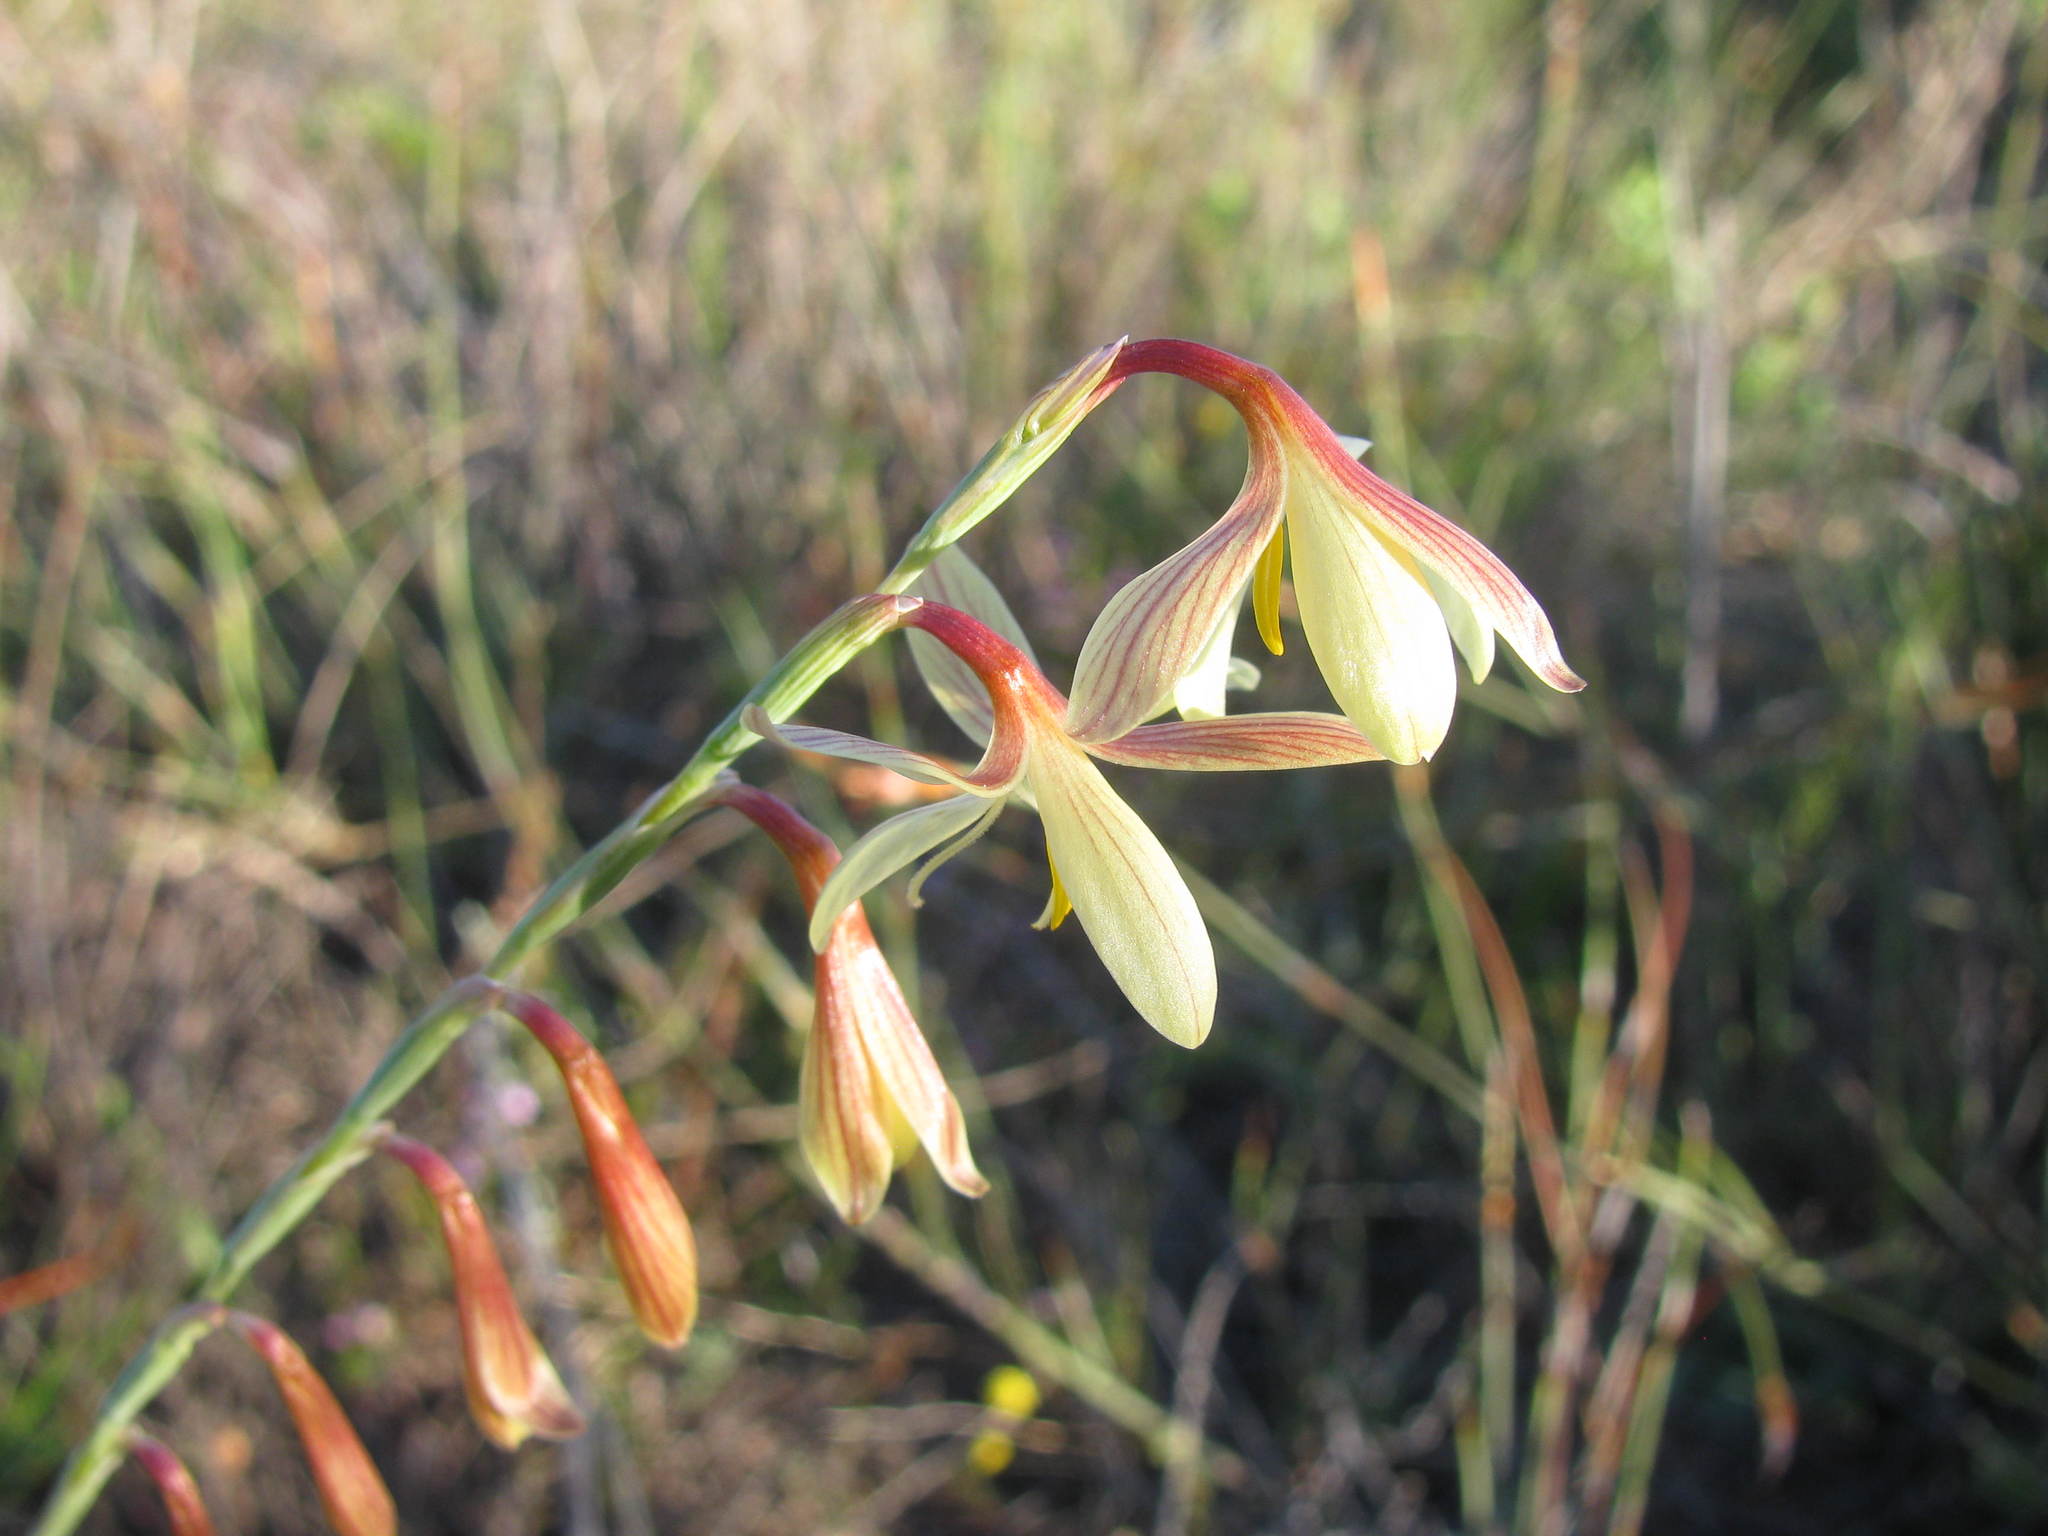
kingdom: Plantae
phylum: Tracheophyta
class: Liliopsida
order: Asparagales
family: Iridaceae
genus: Hesperantha
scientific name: Hesperantha radiata
